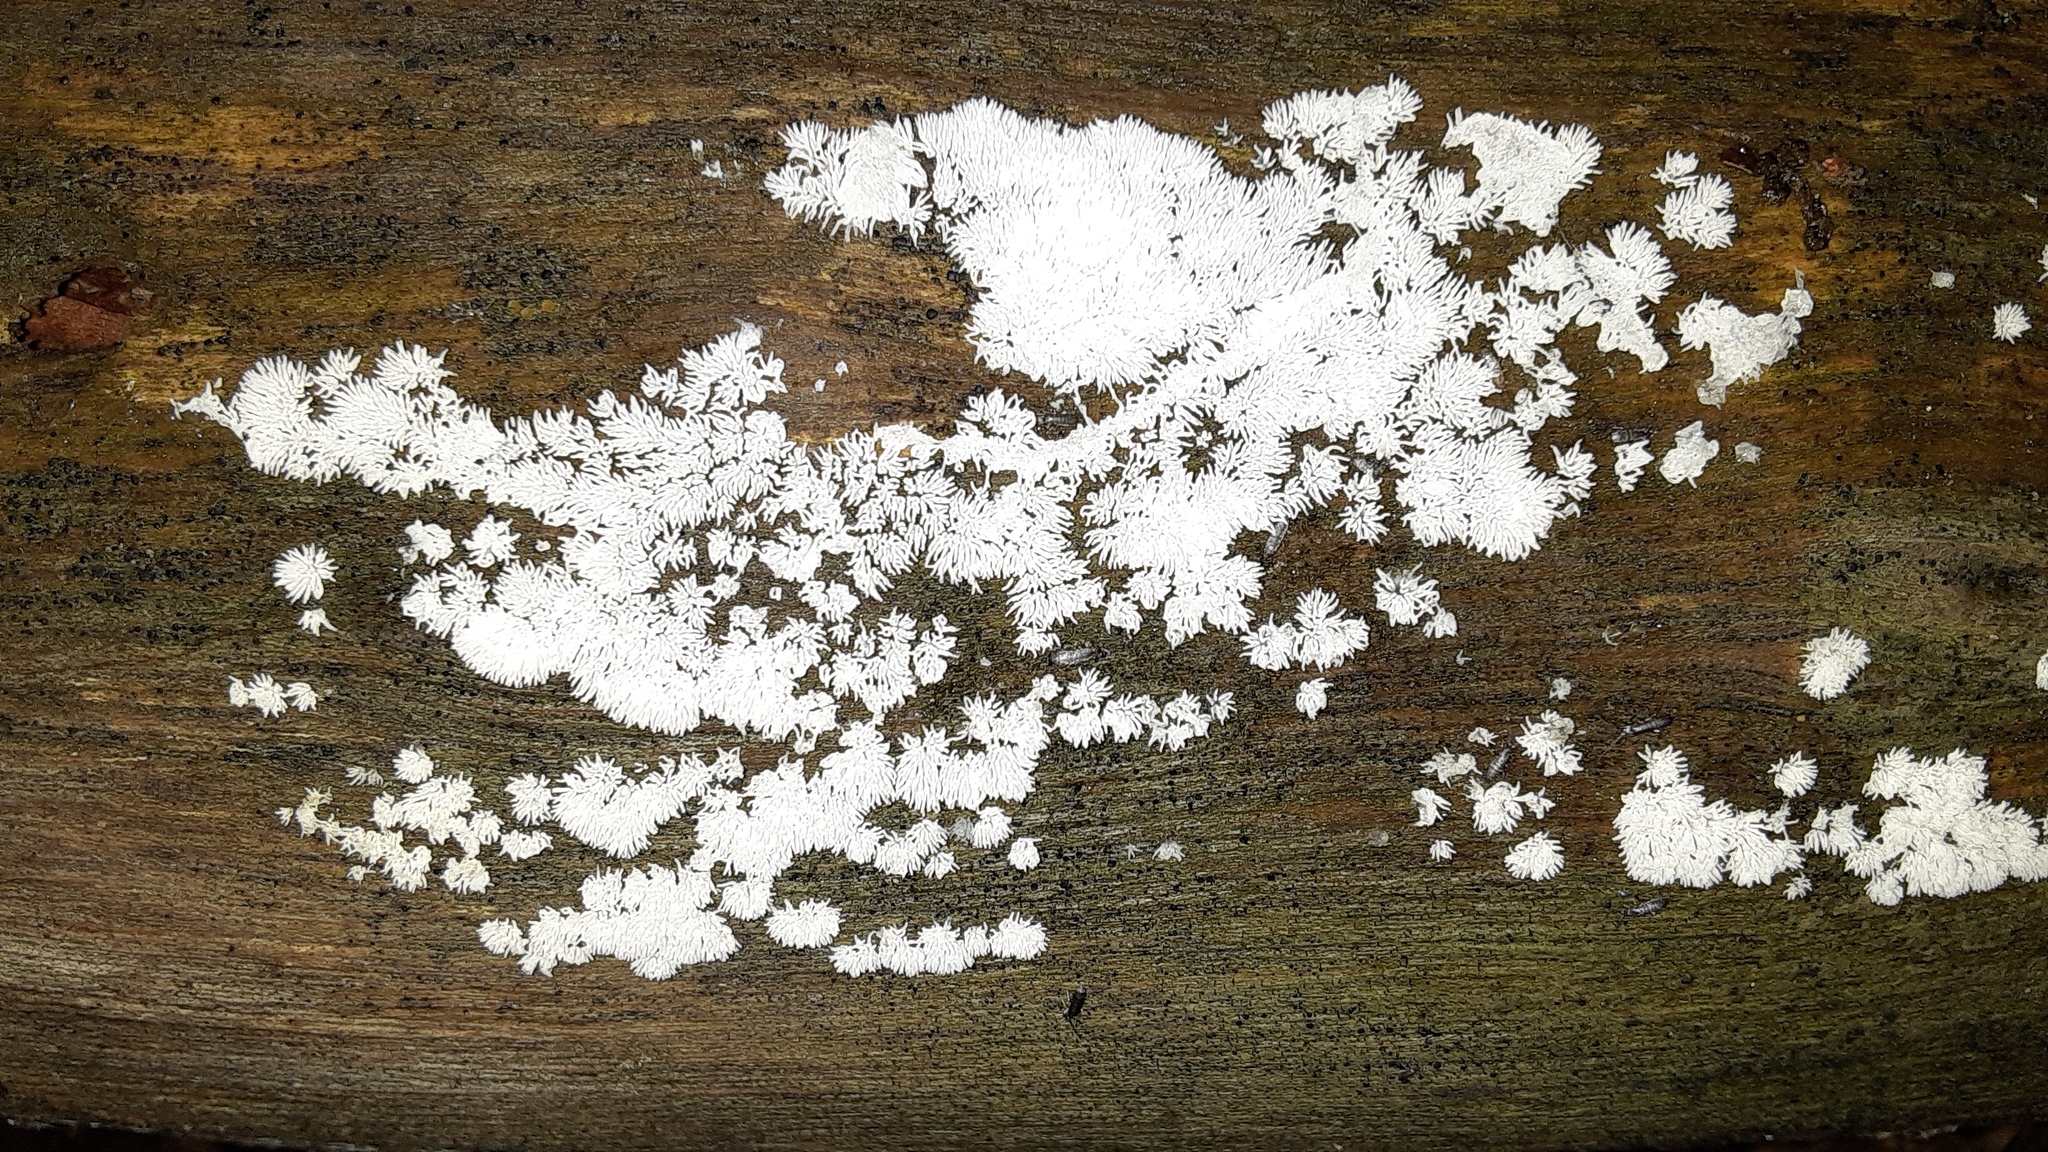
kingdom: Protozoa
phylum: Mycetozoa
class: Protosteliomycetes
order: Ceratiomyxales
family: Ceratiomyxaceae
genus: Ceratiomyxa
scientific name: Ceratiomyxa fruticulosa
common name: Honeycomb coral slime mold
